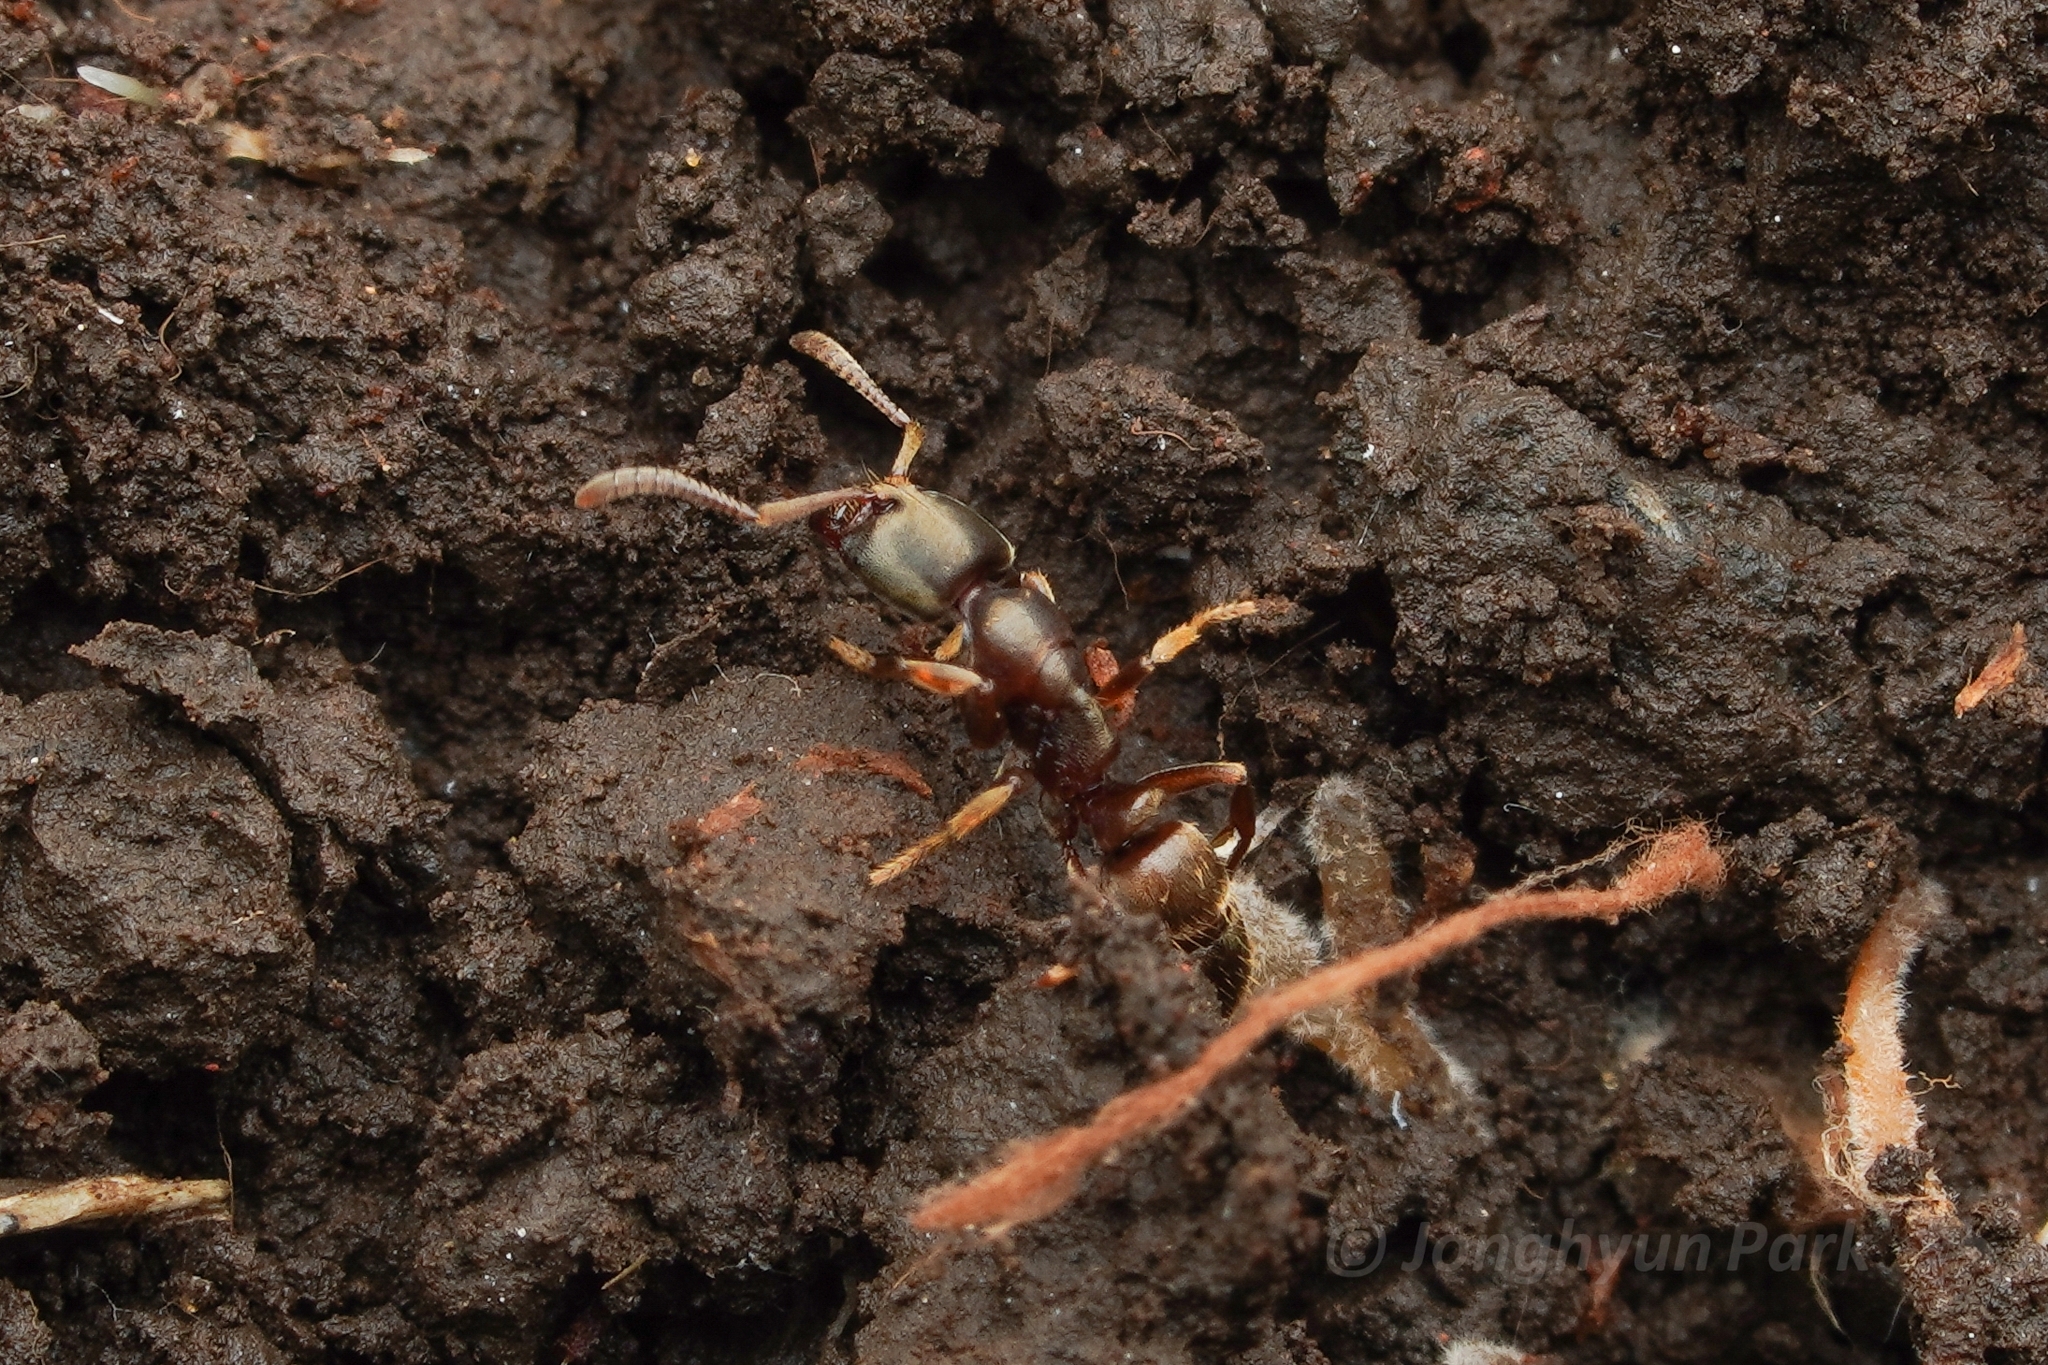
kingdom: Animalia
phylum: Arthropoda
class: Insecta
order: Hymenoptera
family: Formicidae
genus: Pachycondyla
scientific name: Pachycondyla
